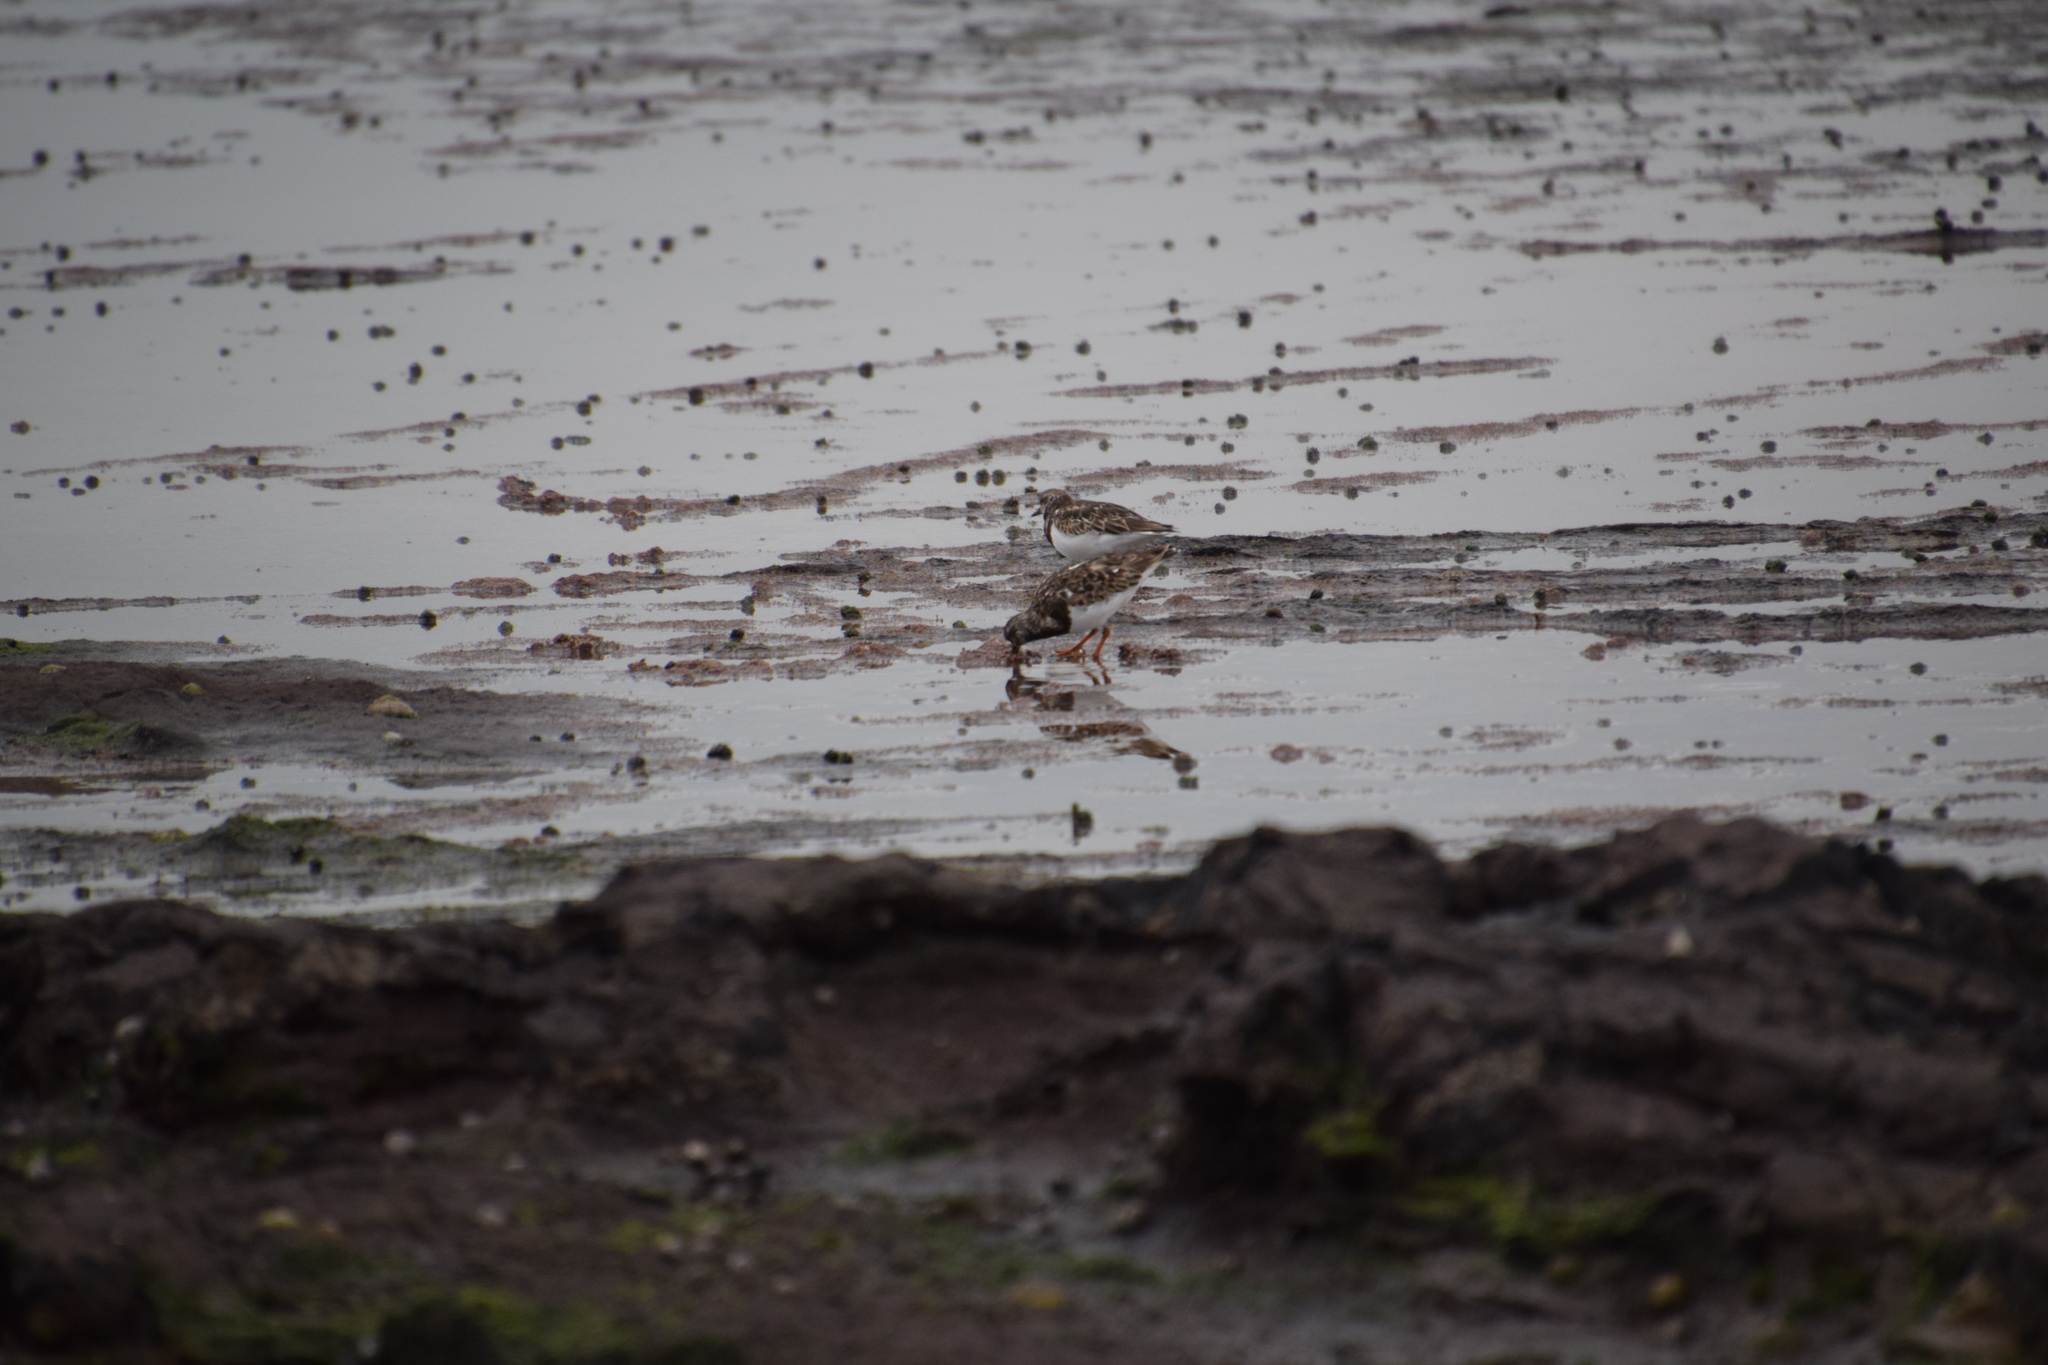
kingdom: Animalia
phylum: Chordata
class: Aves
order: Charadriiformes
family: Scolopacidae
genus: Arenaria
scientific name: Arenaria interpres
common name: Ruddy turnstone
